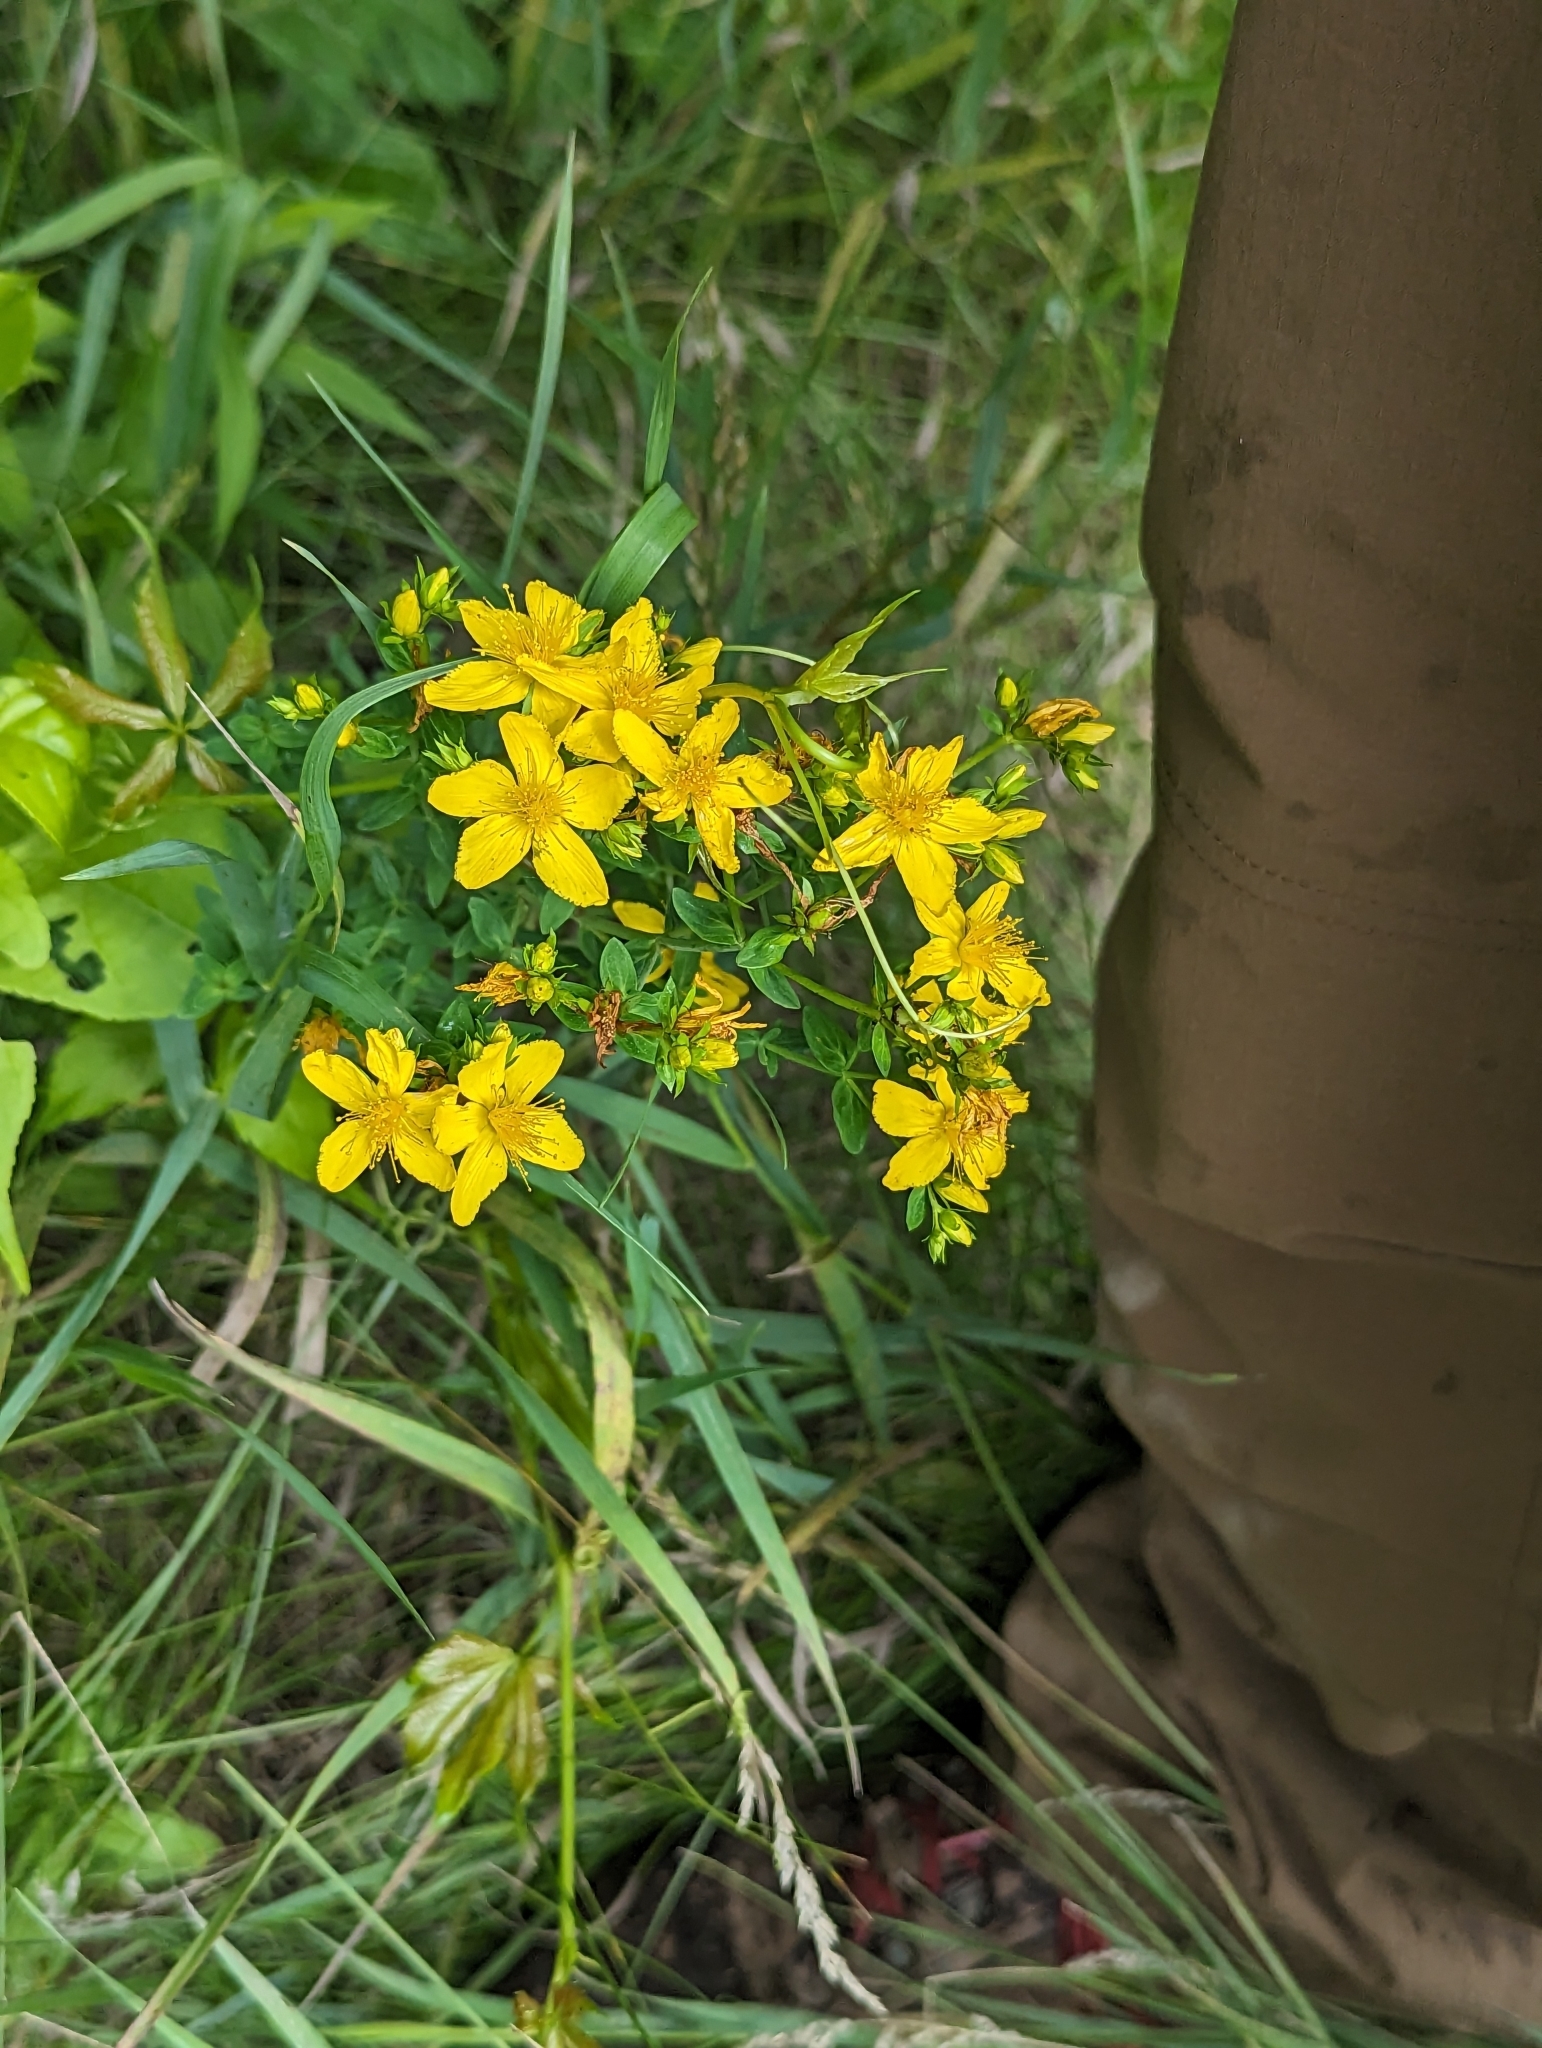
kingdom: Plantae
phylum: Tracheophyta
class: Magnoliopsida
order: Malpighiales
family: Hypericaceae
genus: Hypericum
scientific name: Hypericum perforatum
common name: Common st. johnswort
